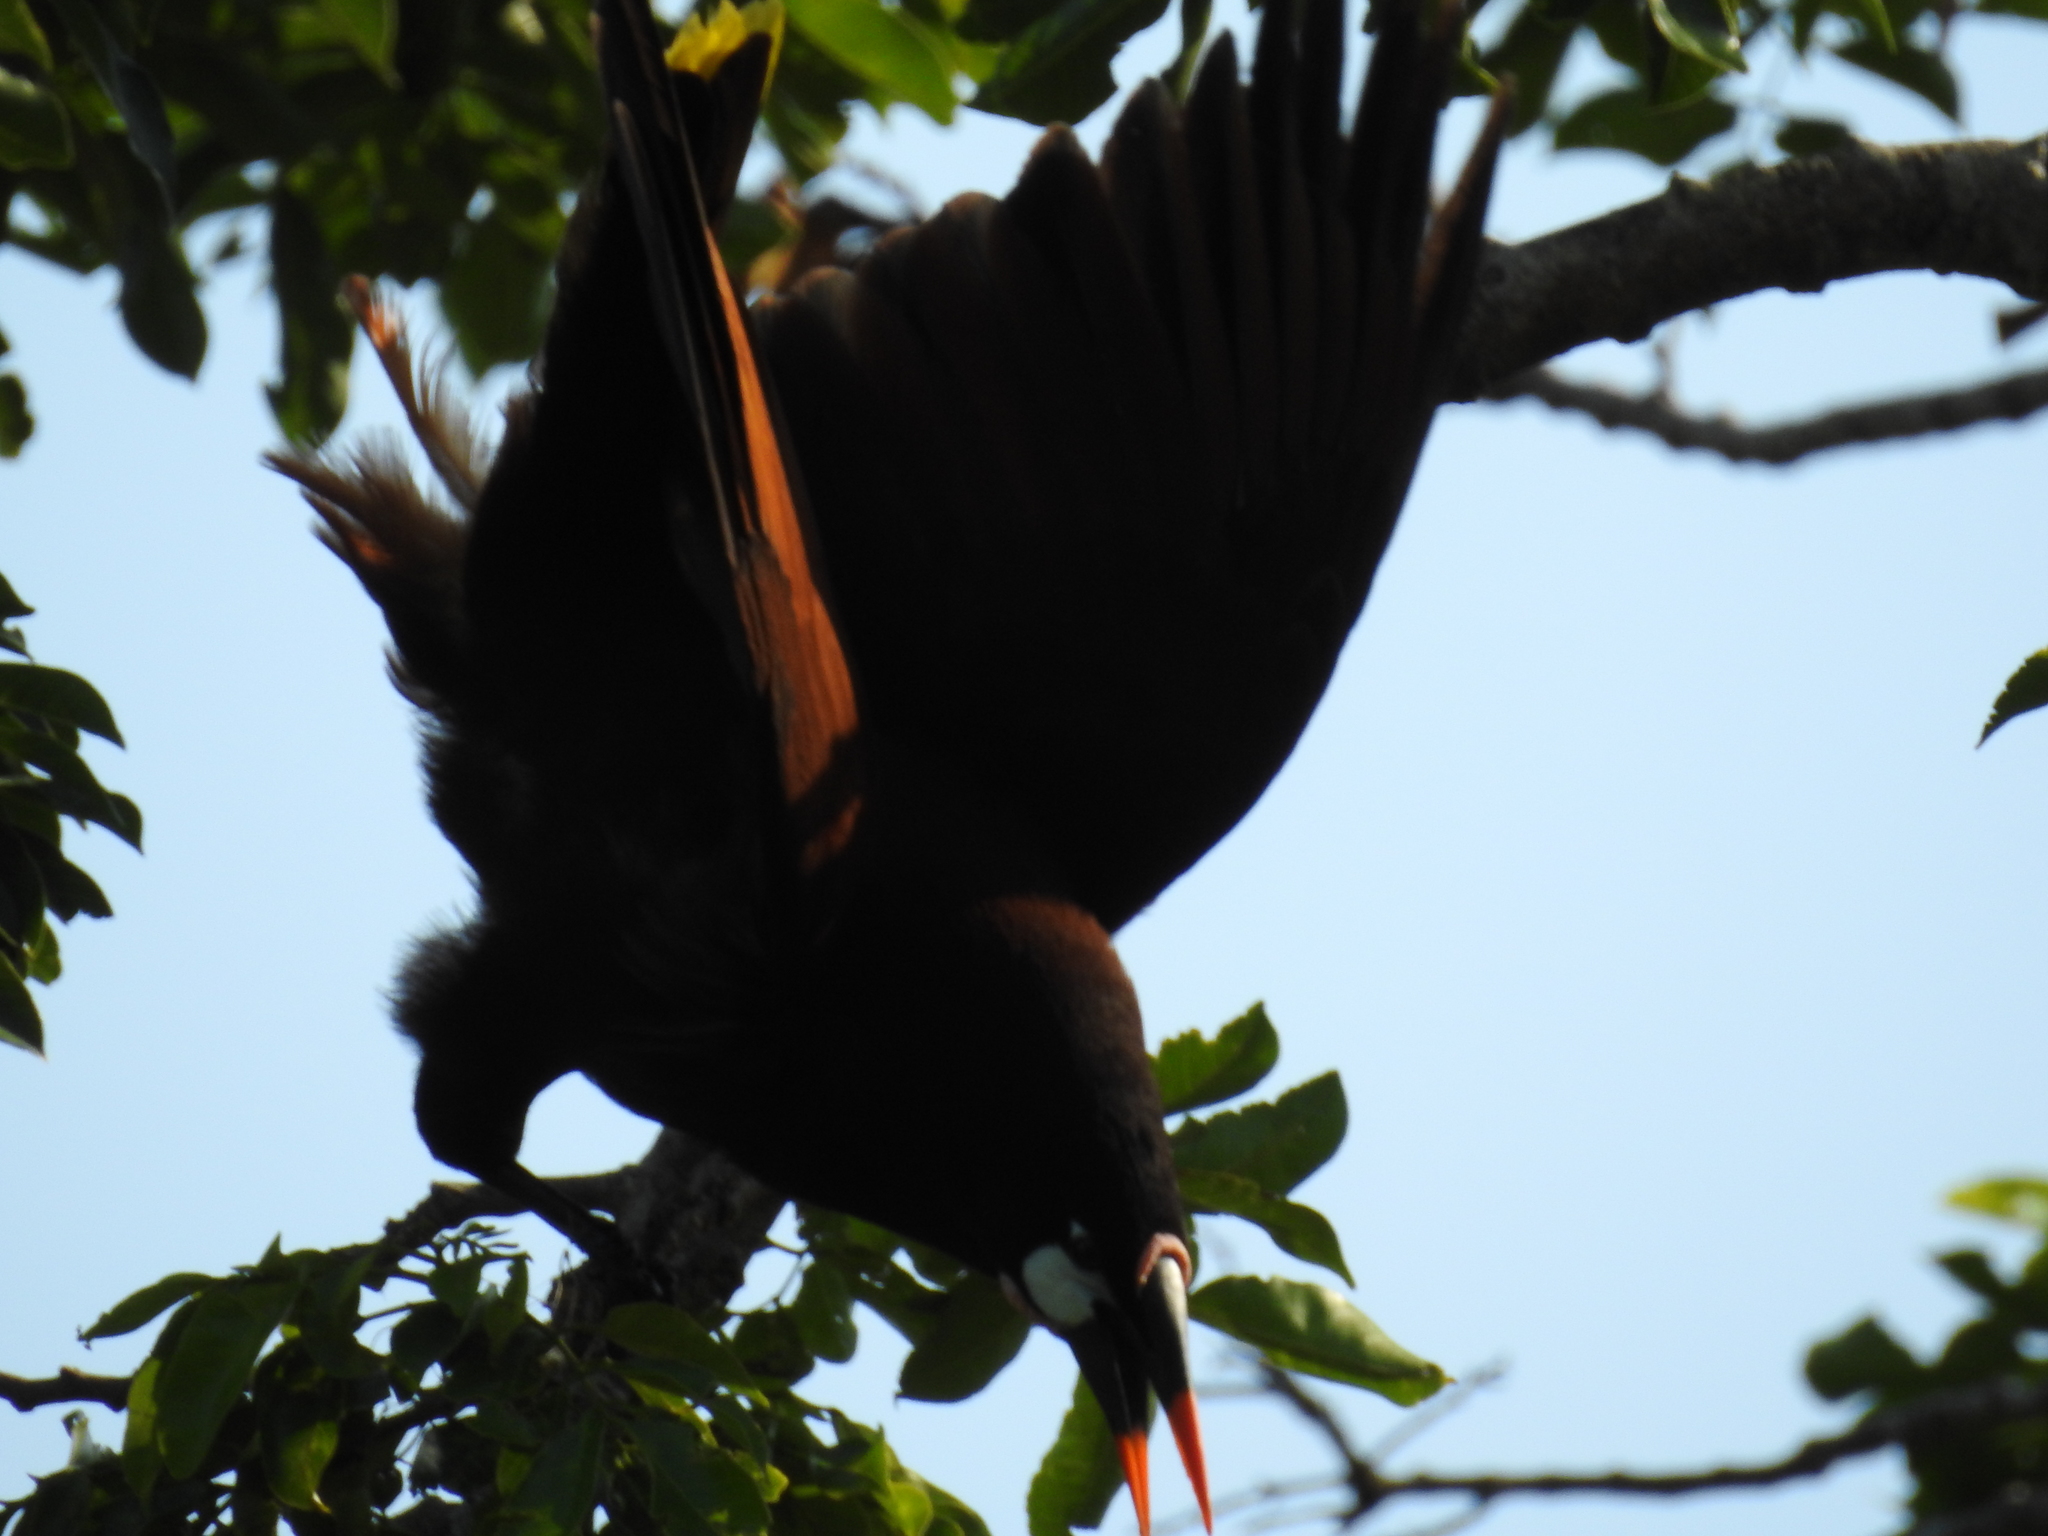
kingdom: Animalia
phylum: Chordata
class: Aves
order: Passeriformes
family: Icteridae
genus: Psarocolius
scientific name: Psarocolius montezuma
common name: Montezuma oropendola
